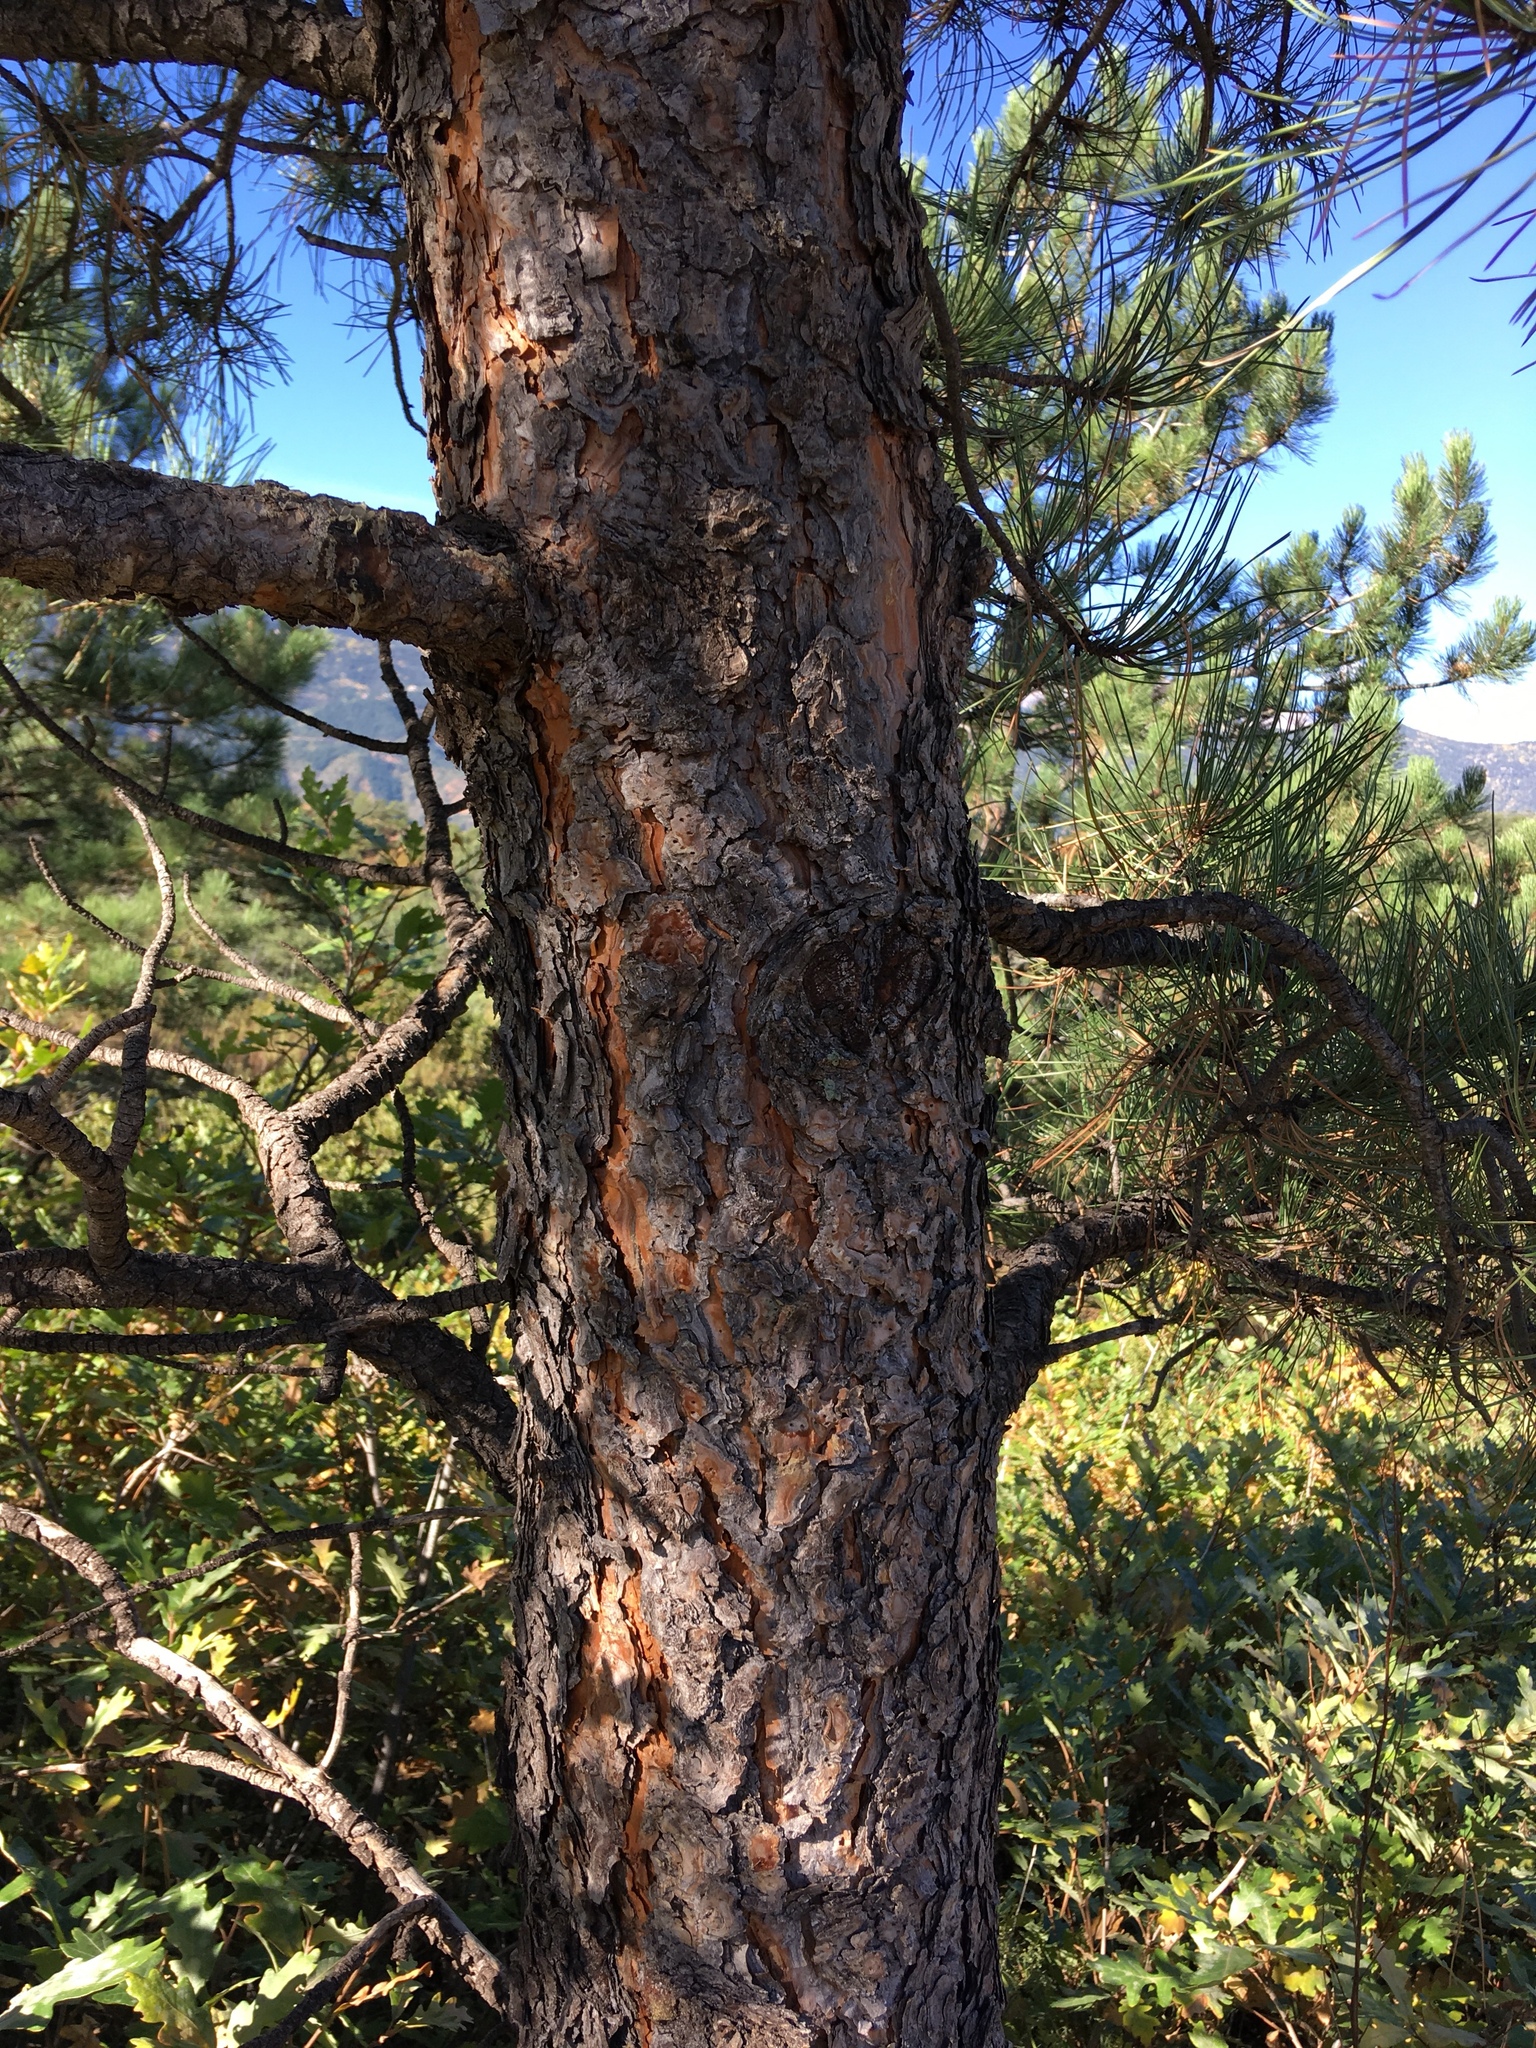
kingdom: Plantae
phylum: Tracheophyta
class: Pinopsida
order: Pinales
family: Pinaceae
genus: Pinus
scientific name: Pinus ponderosa
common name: Western yellow-pine
